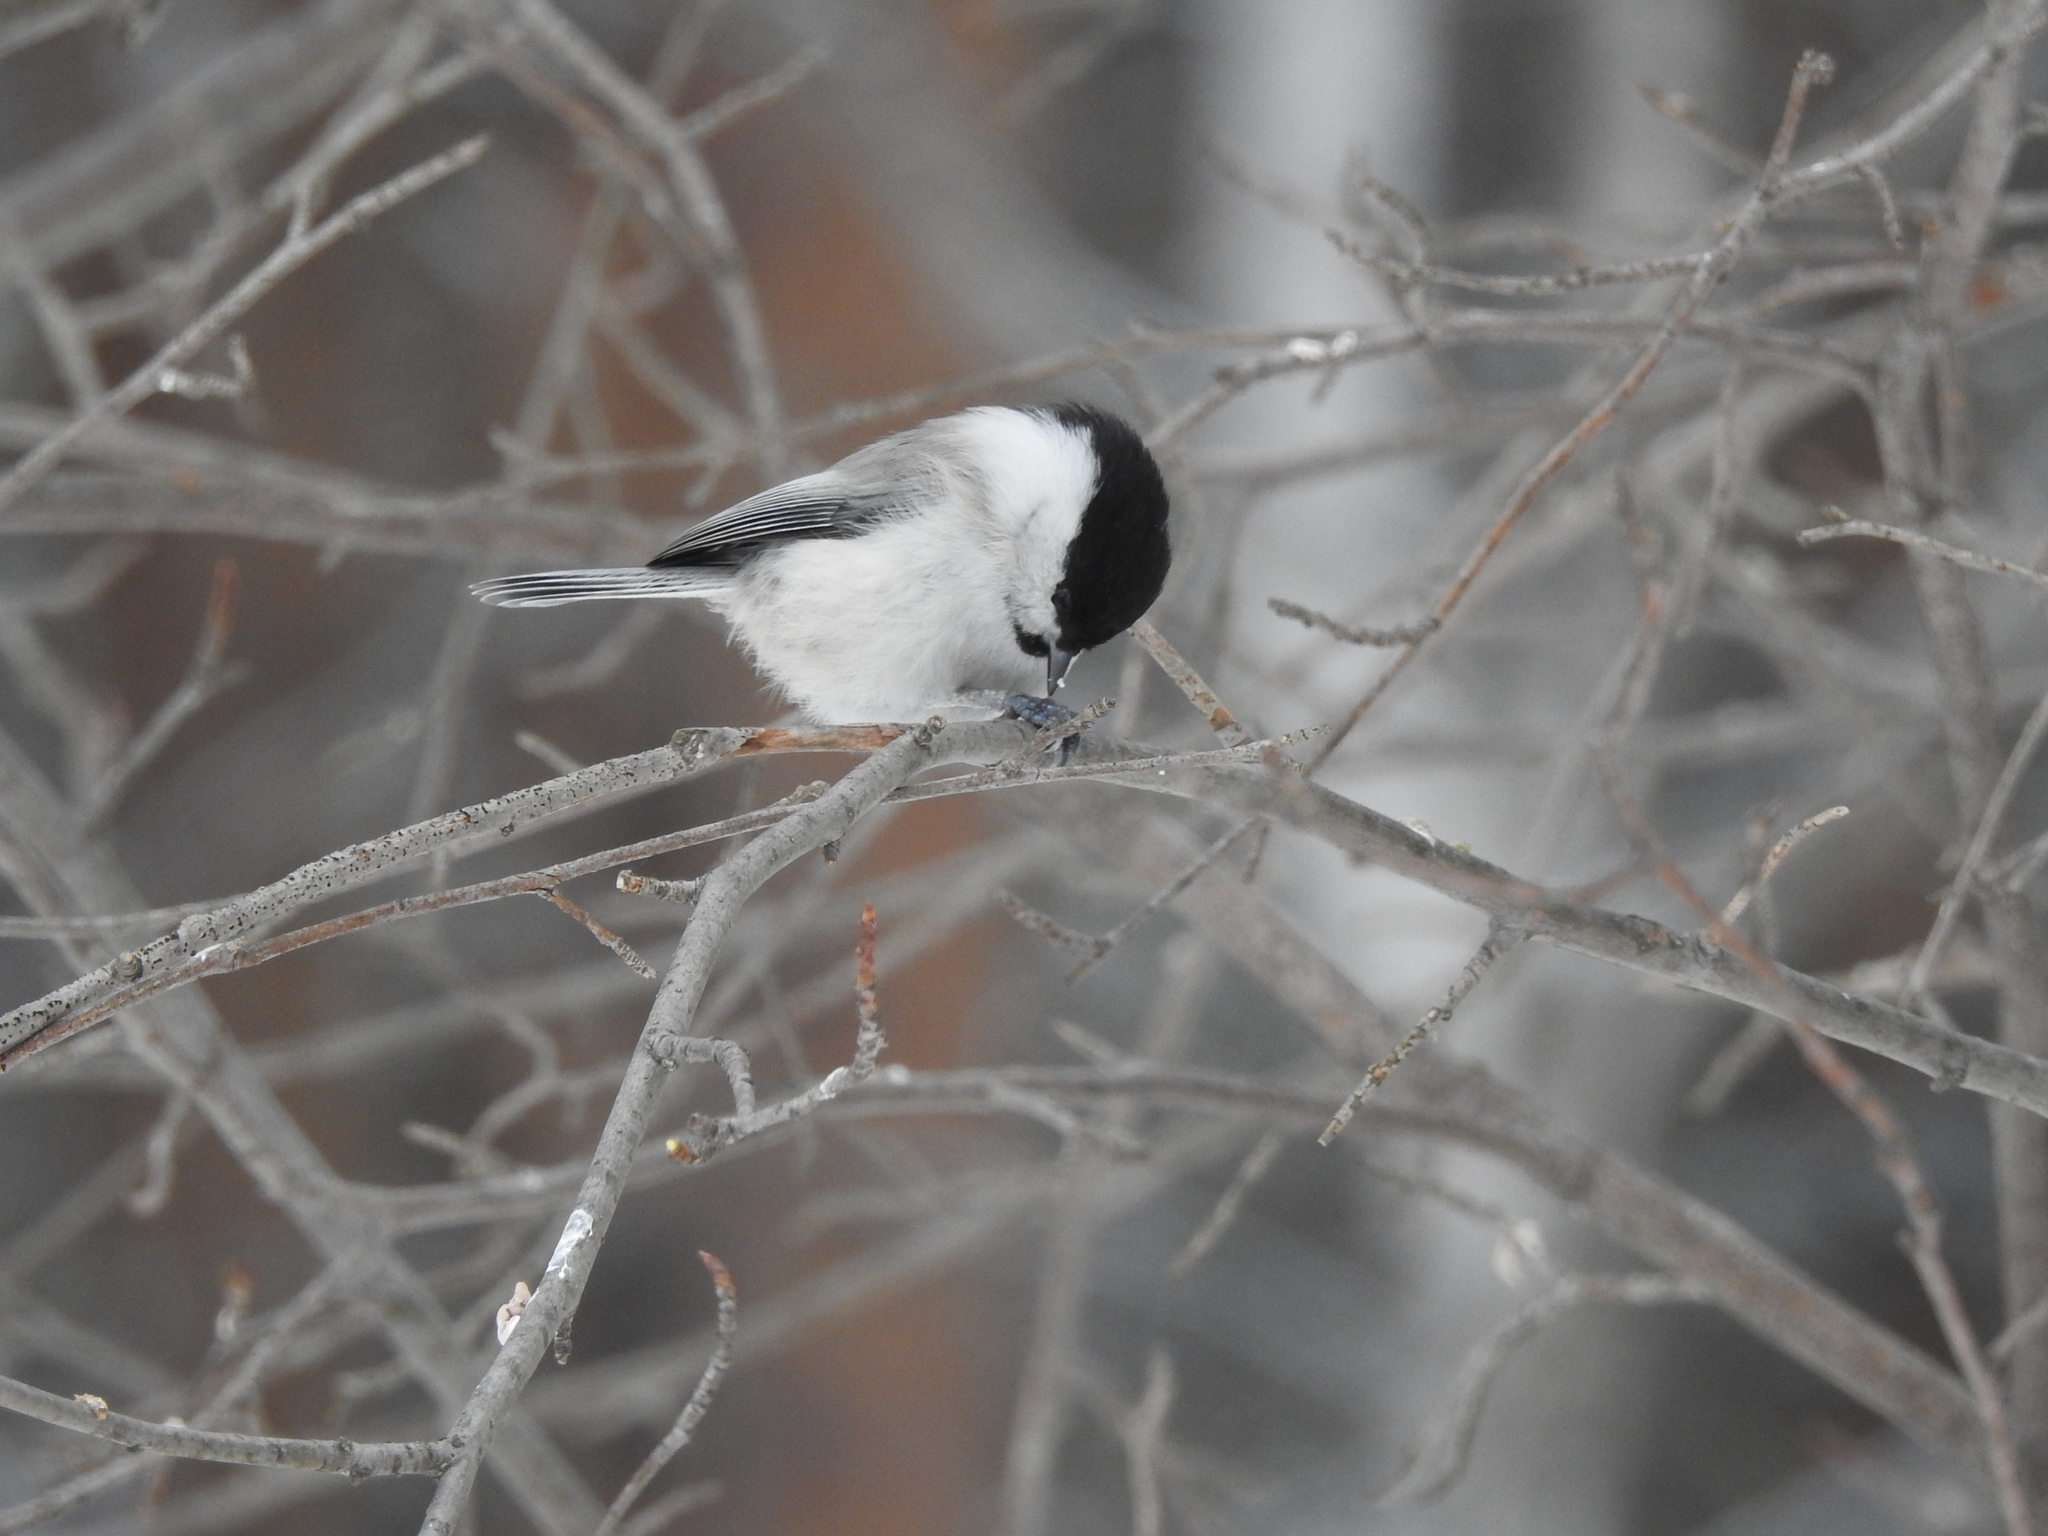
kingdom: Animalia
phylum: Chordata
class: Aves
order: Passeriformes
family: Paridae
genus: Poecile
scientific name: Poecile montanus
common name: Willow tit
